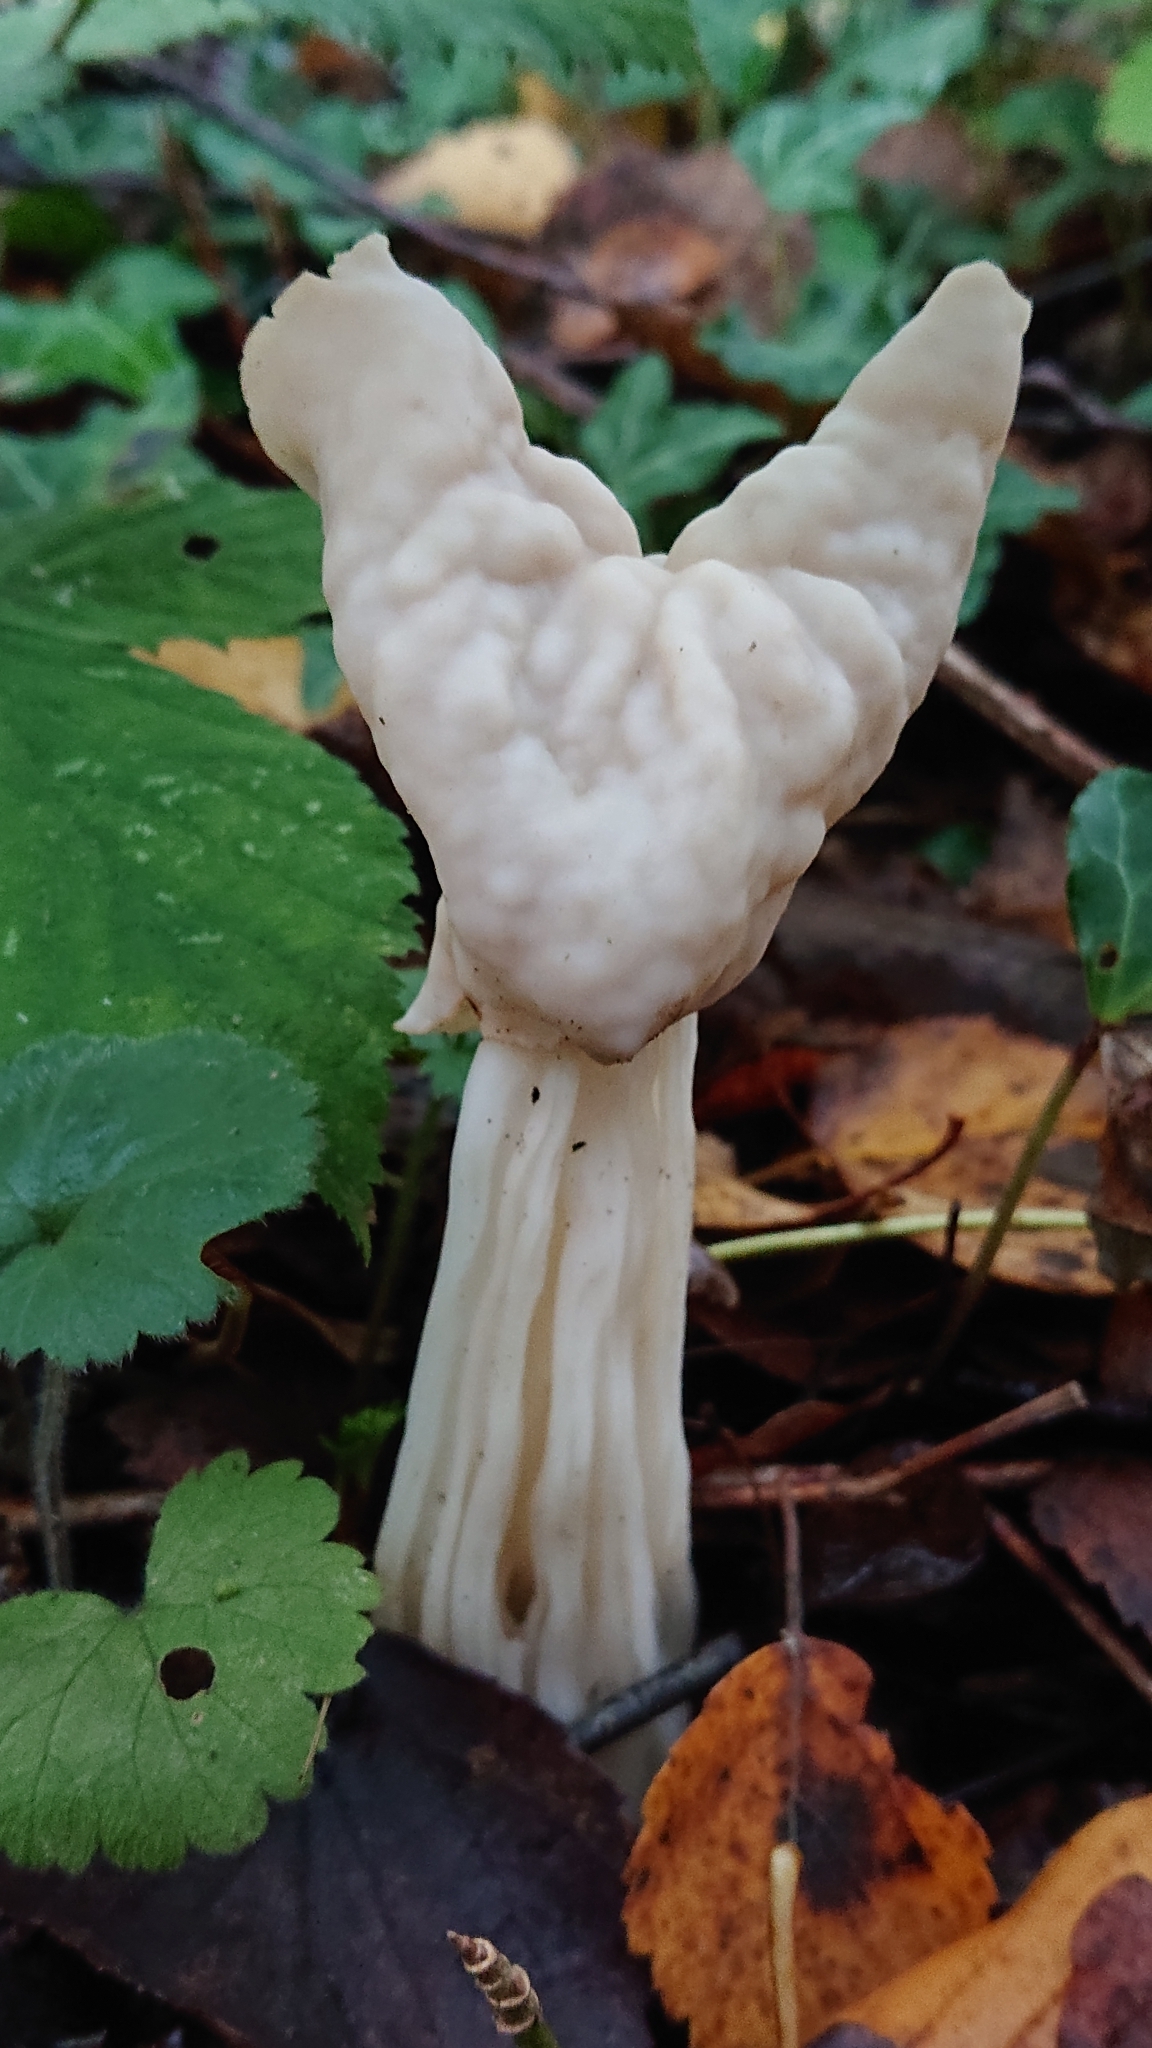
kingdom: Fungi
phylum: Ascomycota
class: Pezizomycetes
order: Pezizales
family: Helvellaceae
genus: Helvella
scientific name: Helvella crispa
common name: White saddle
